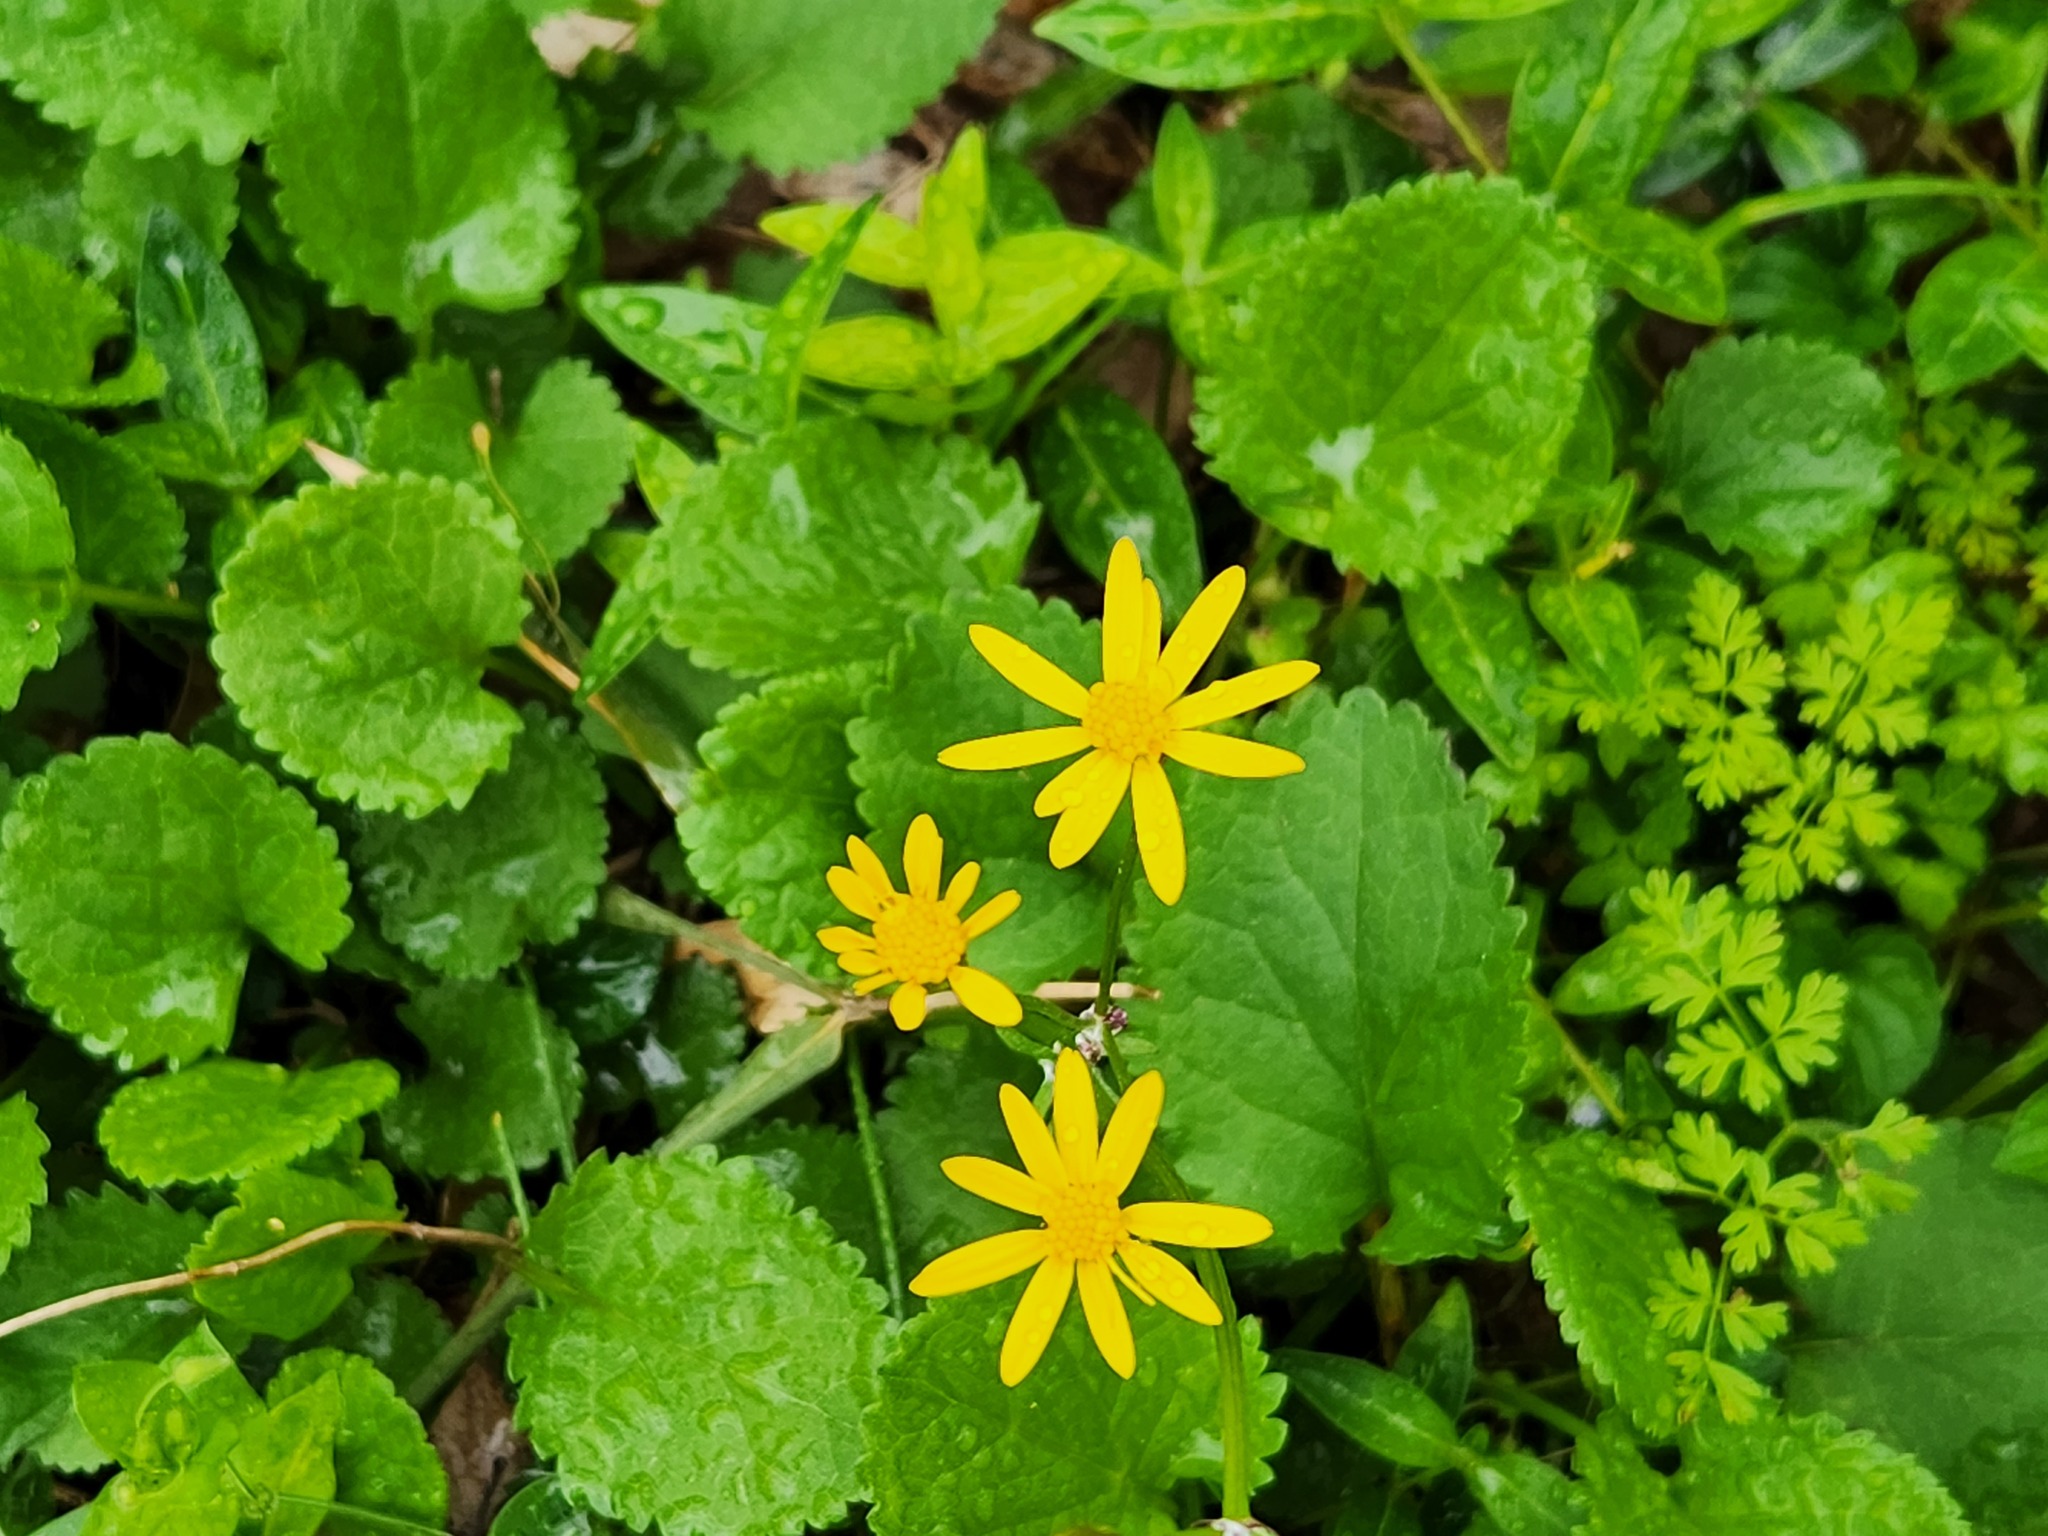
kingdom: Plantae
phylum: Tracheophyta
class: Magnoliopsida
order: Asterales
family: Asteraceae
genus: Packera
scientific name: Packera aurea
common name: Golden groundsel
